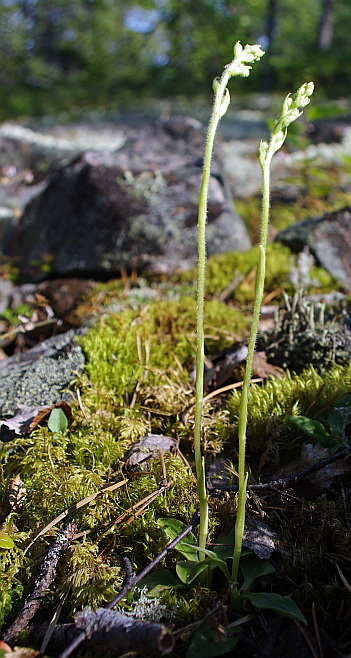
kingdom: Plantae
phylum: Tracheophyta
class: Liliopsida
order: Asparagales
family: Orchidaceae
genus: Goodyera
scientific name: Goodyera repens
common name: Creeping lady's-tresses
